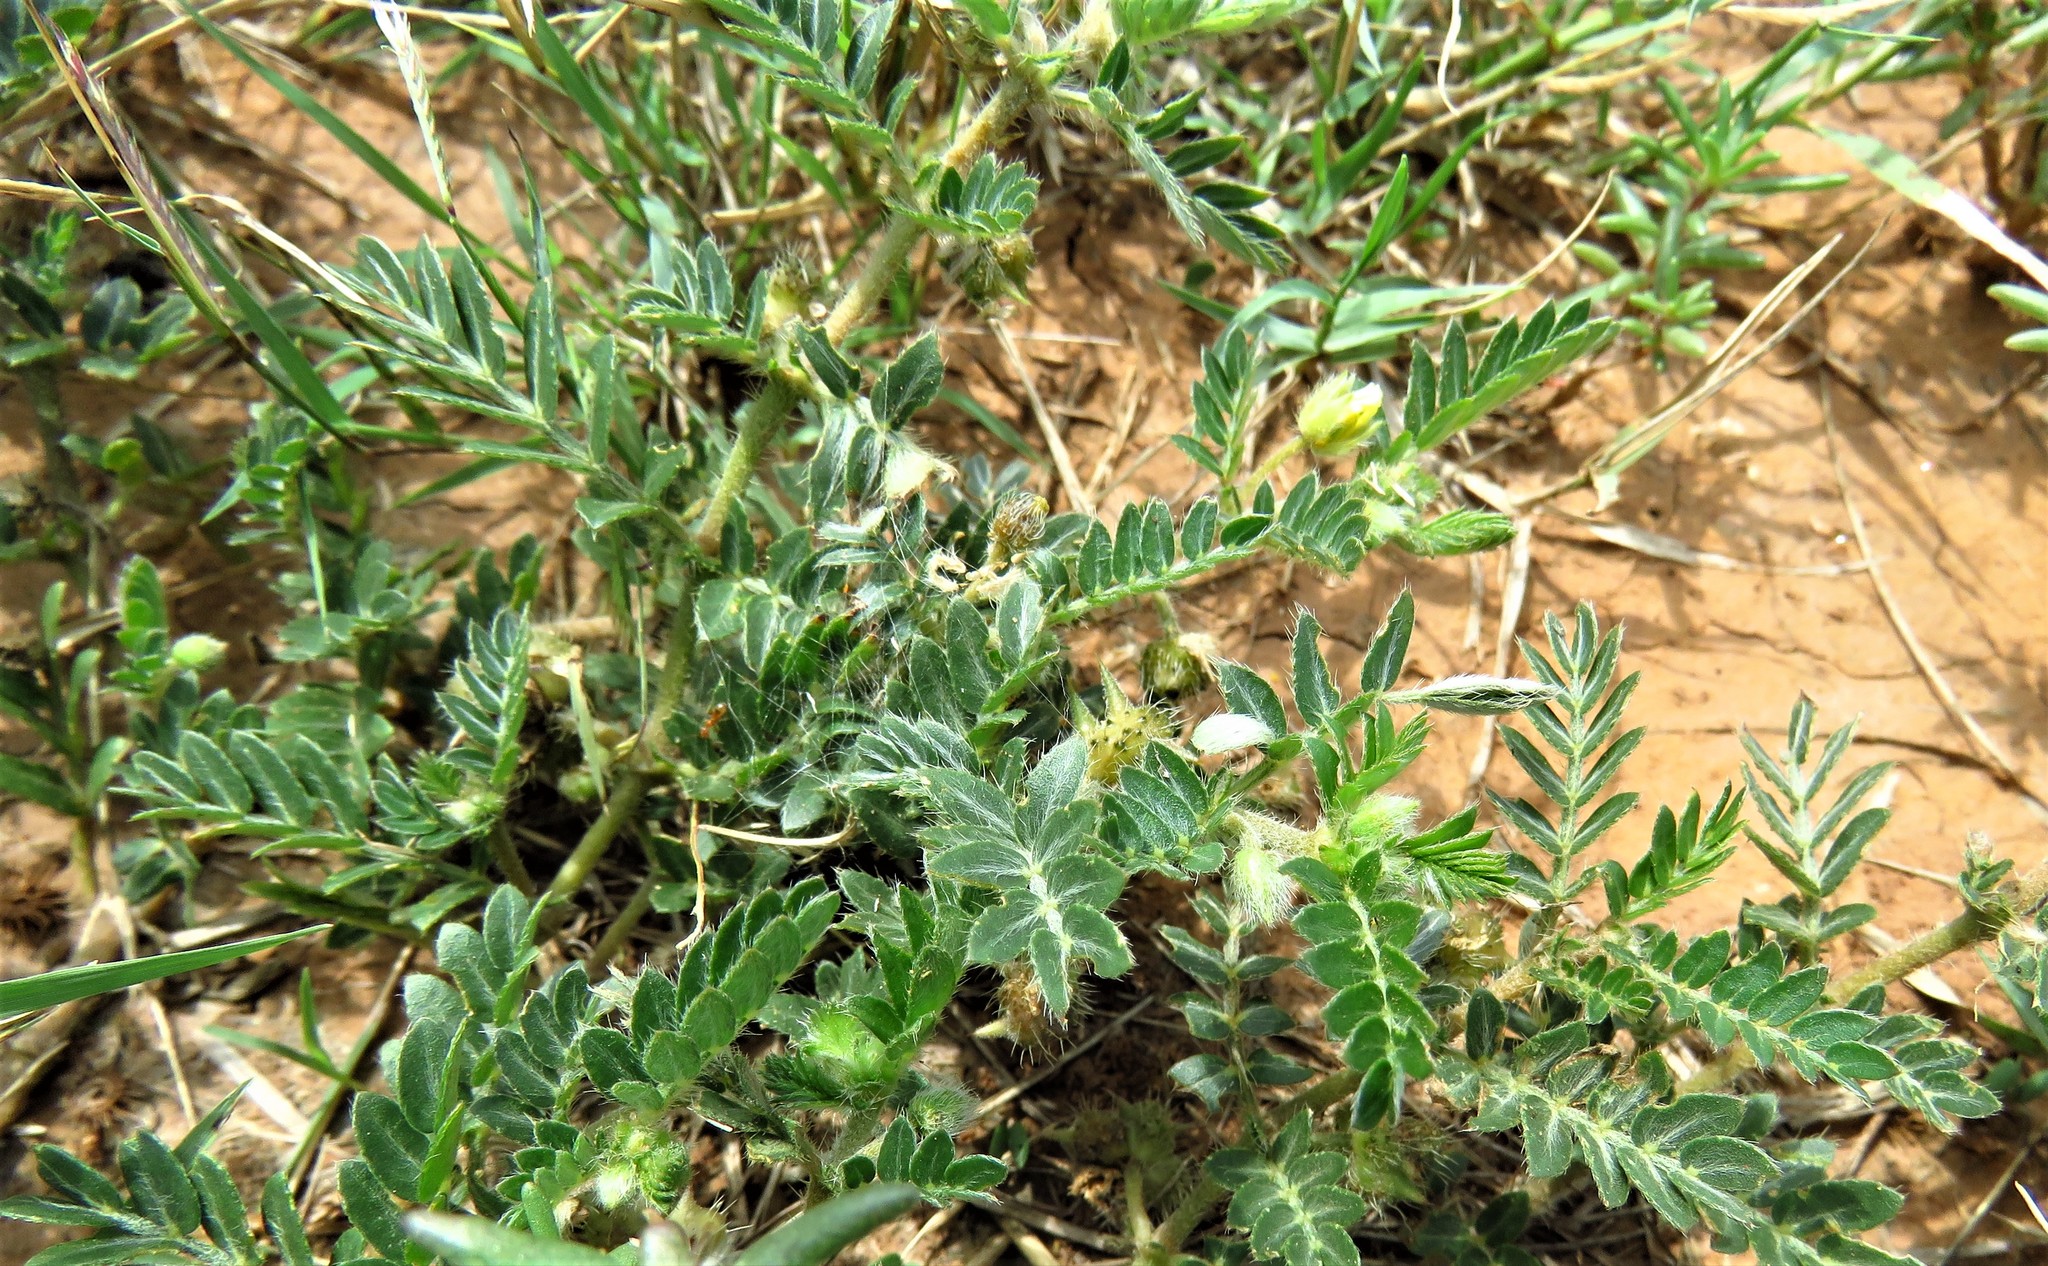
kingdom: Plantae
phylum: Tracheophyta
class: Magnoliopsida
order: Zygophyllales
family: Zygophyllaceae
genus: Tribulus
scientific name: Tribulus terrestris
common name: Puncturevine
